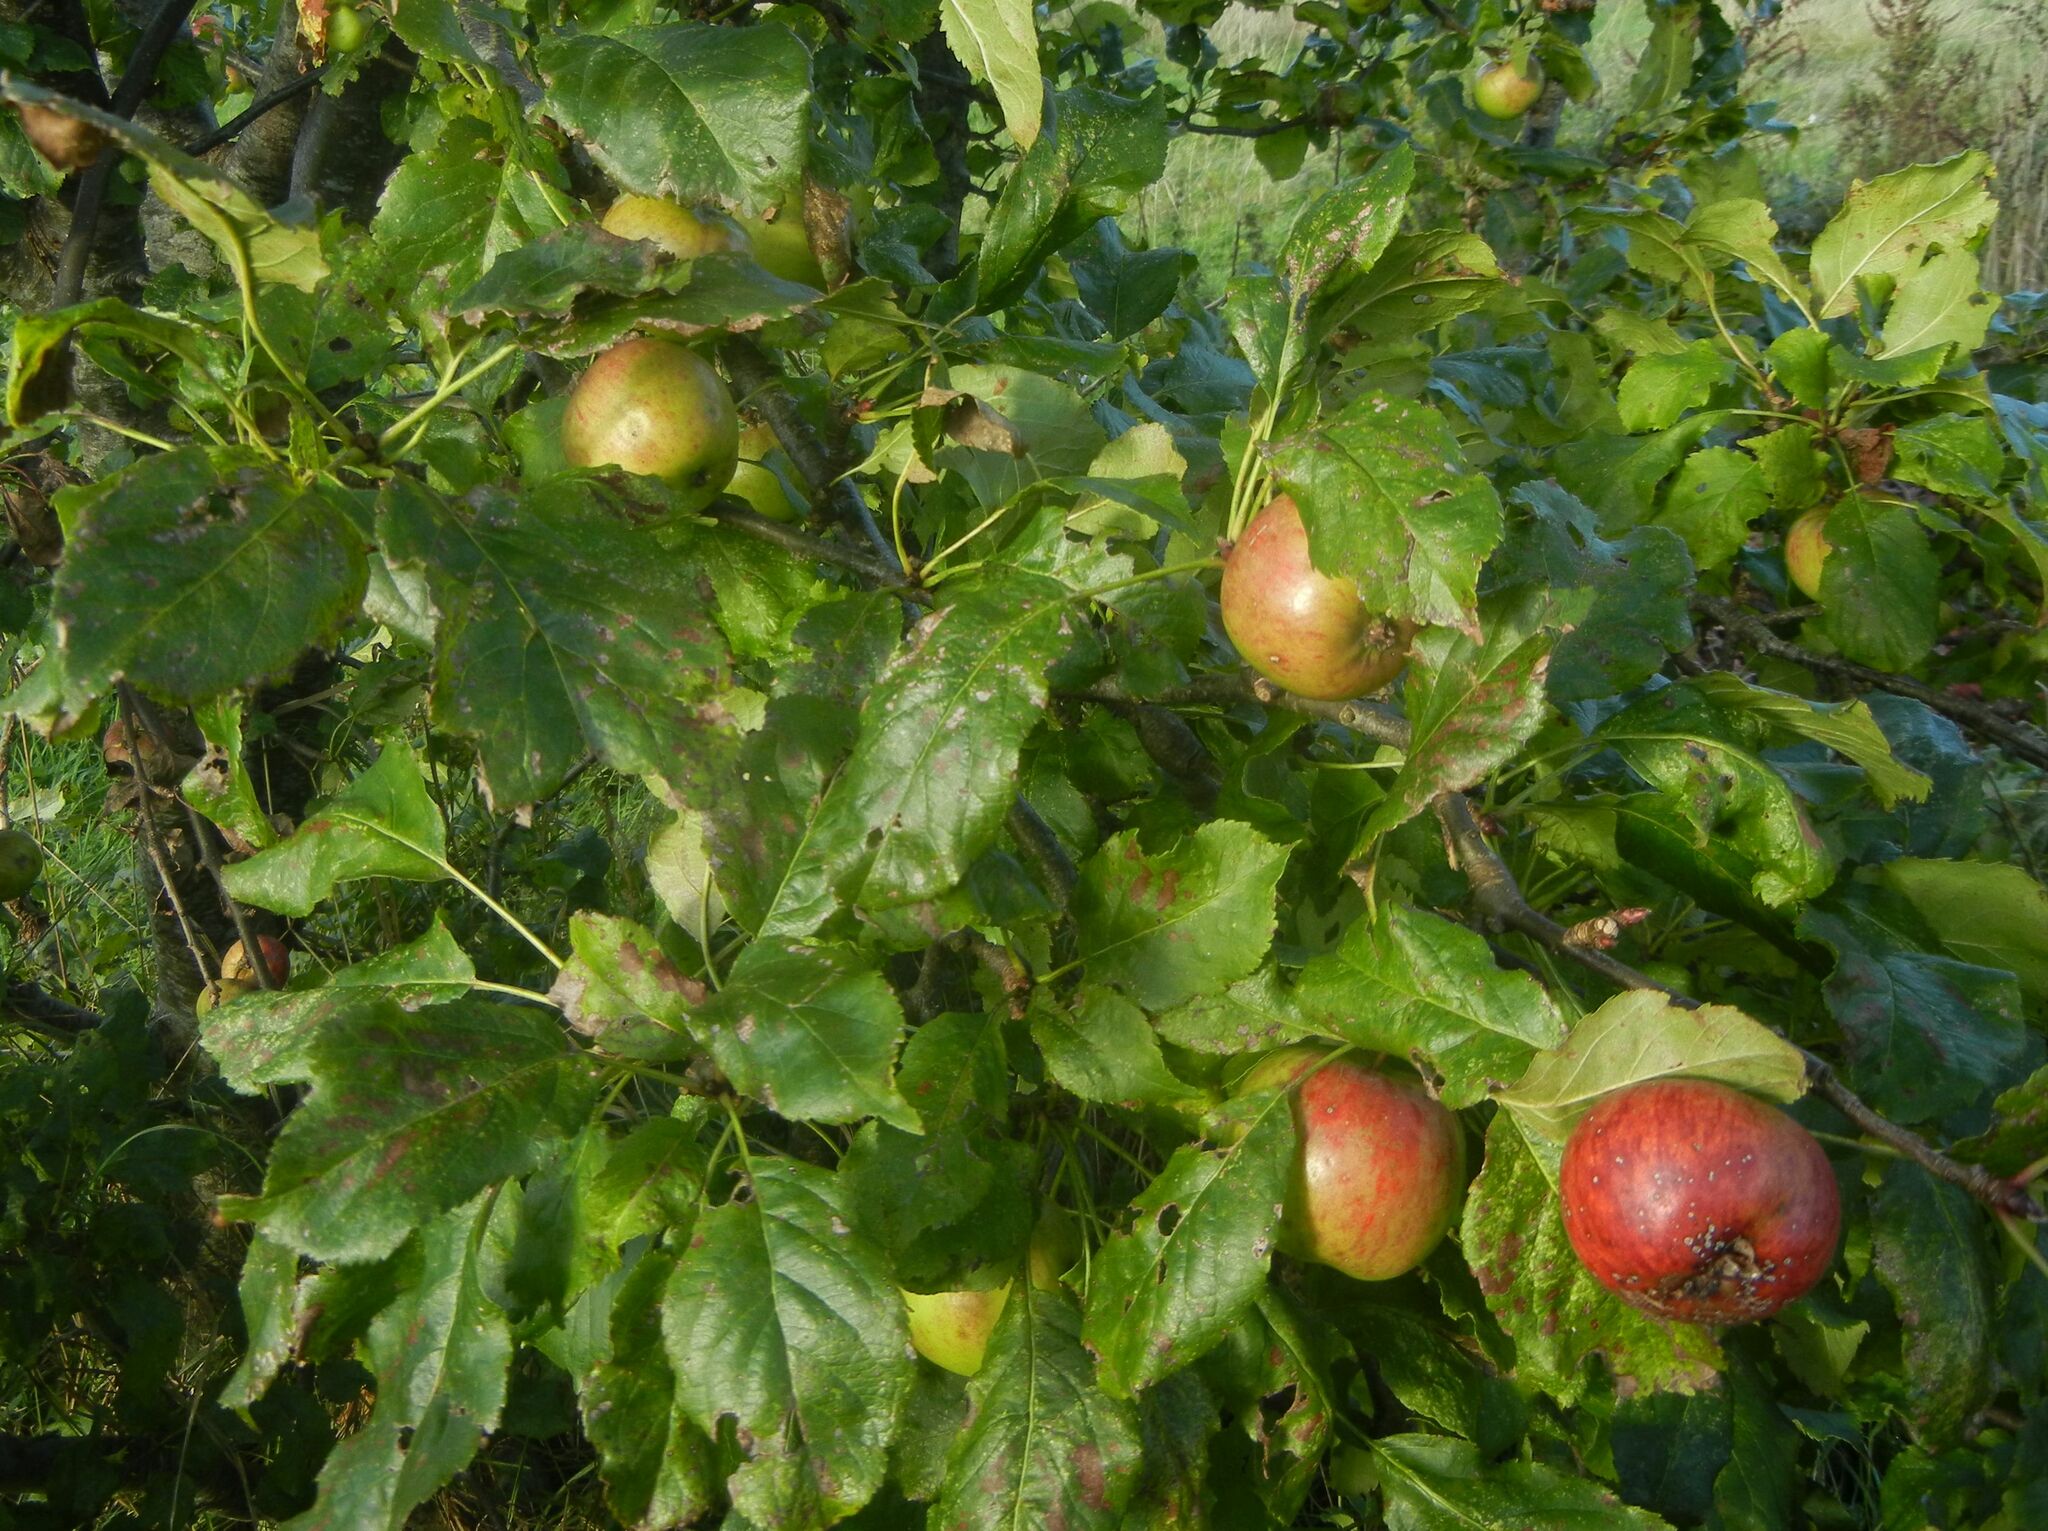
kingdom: Plantae
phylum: Tracheophyta
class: Magnoliopsida
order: Rosales
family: Rosaceae
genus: Malus
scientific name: Malus domestica
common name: Apple
